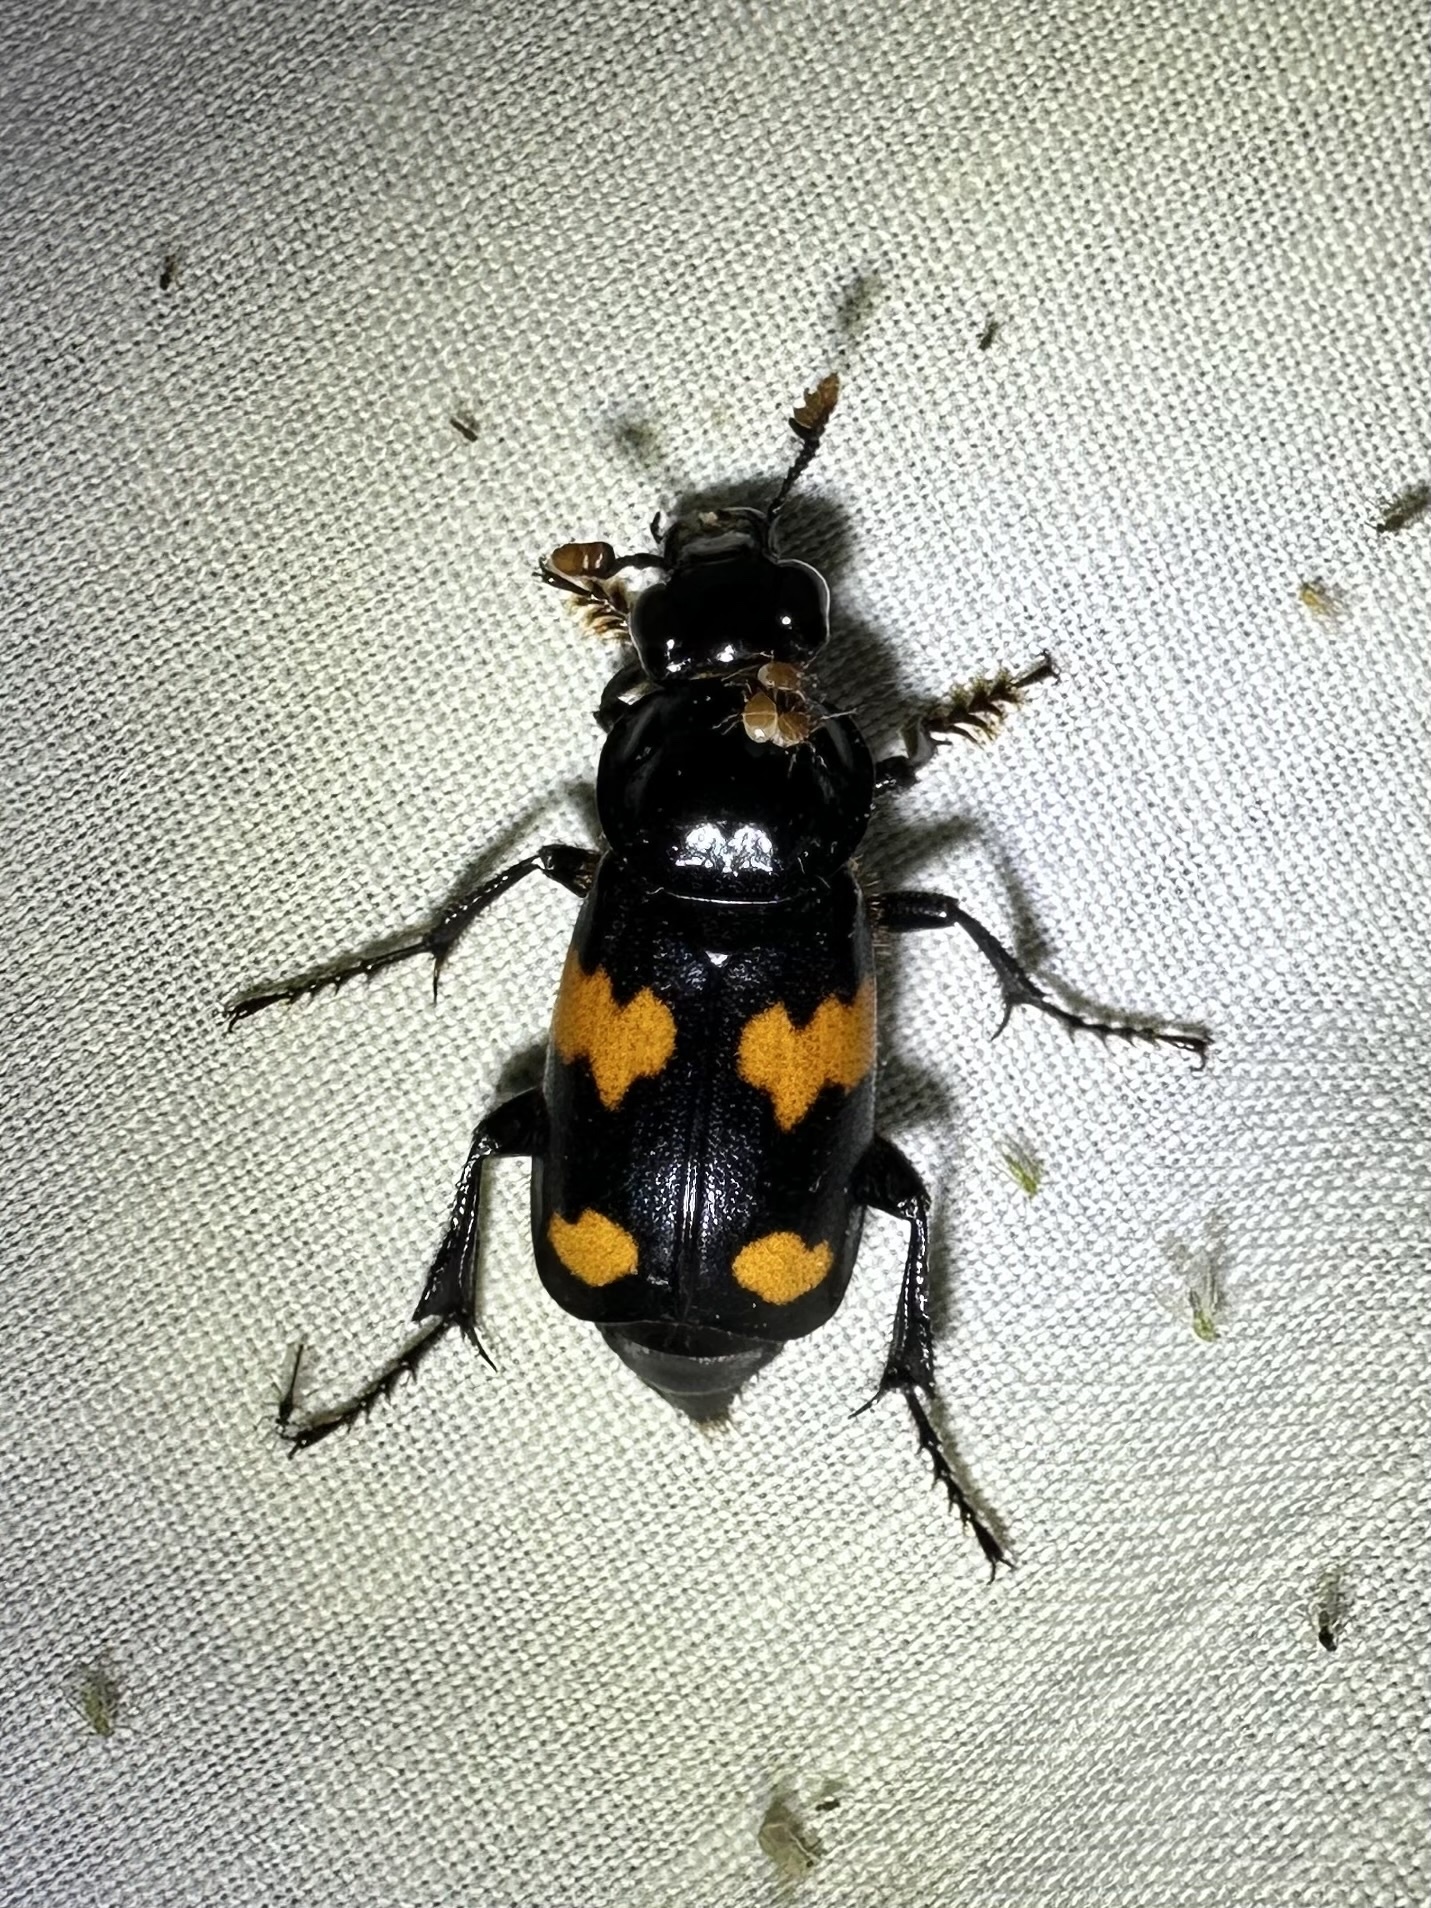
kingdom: Animalia
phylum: Arthropoda
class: Insecta
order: Coleoptera
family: Staphylinidae
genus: Nicrophorus
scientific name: Nicrophorus orbicollis
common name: Roundneck sexton beetle
